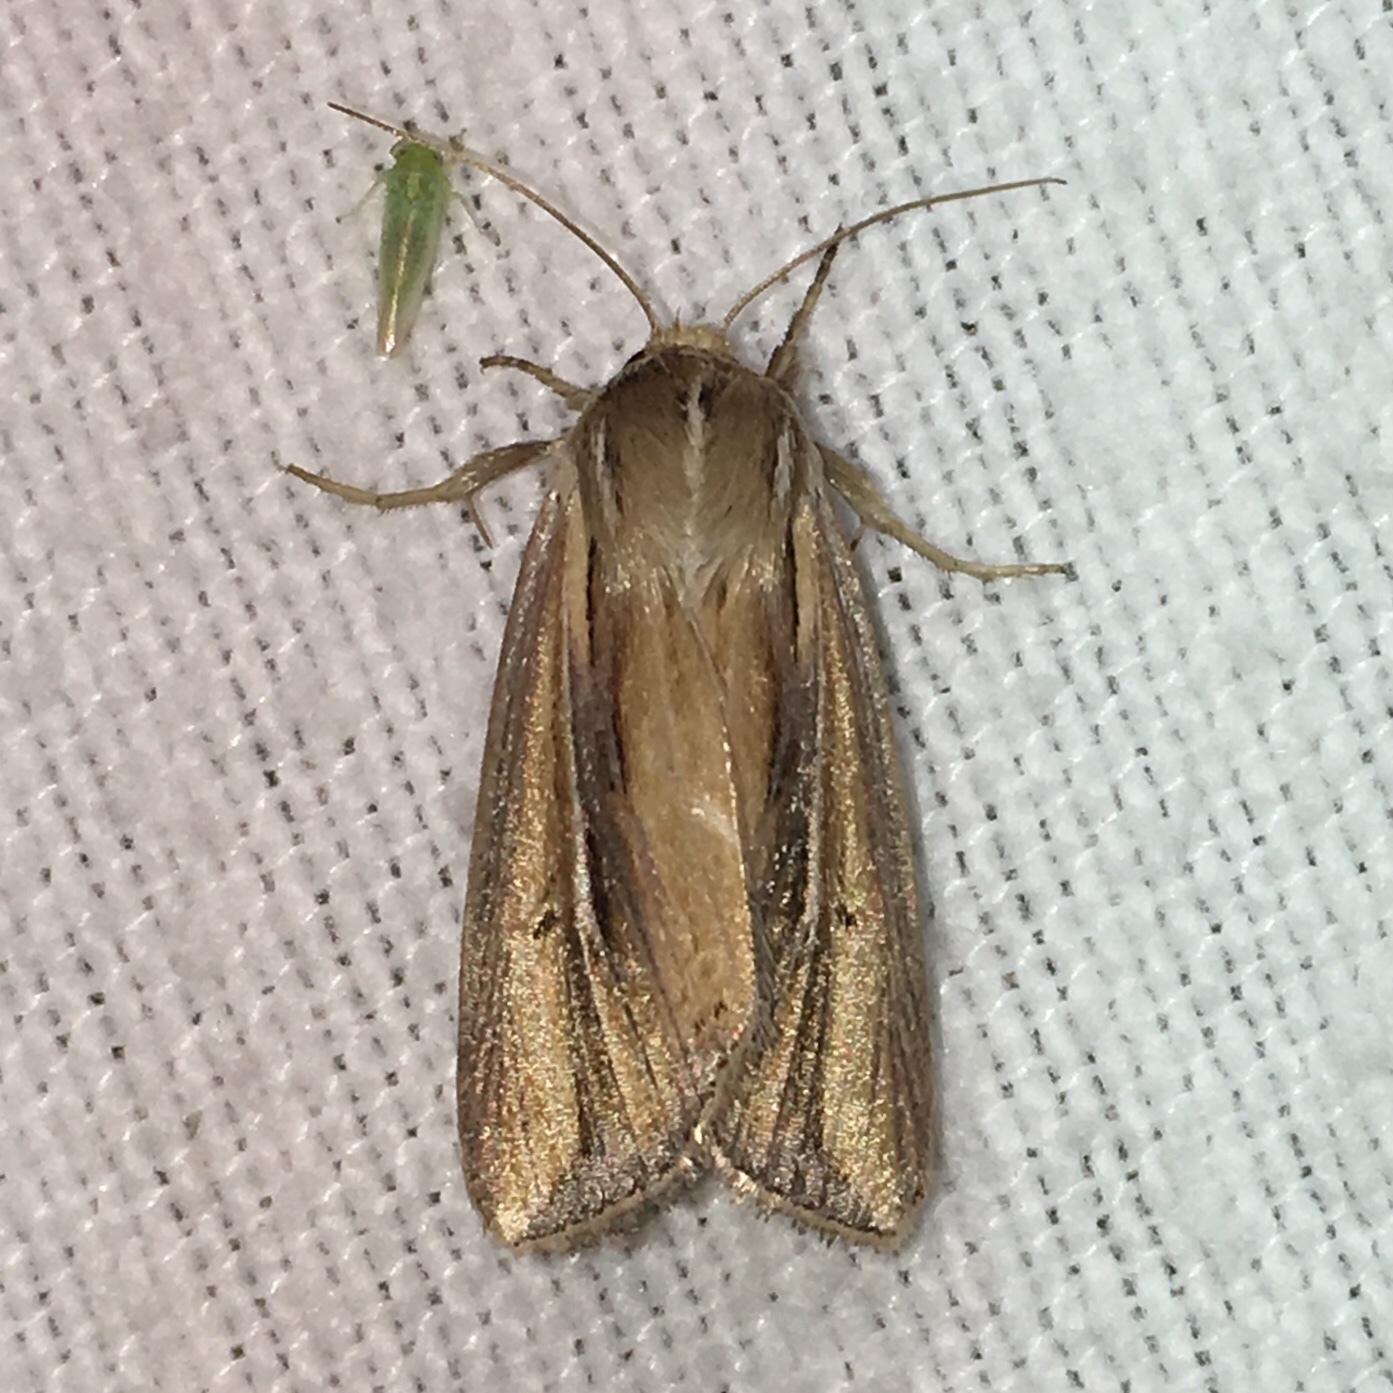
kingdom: Animalia
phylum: Arthropoda
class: Insecta
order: Lepidoptera
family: Noctuidae
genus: Dargida
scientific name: Dargida diffusa
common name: Wheat head armyworm
